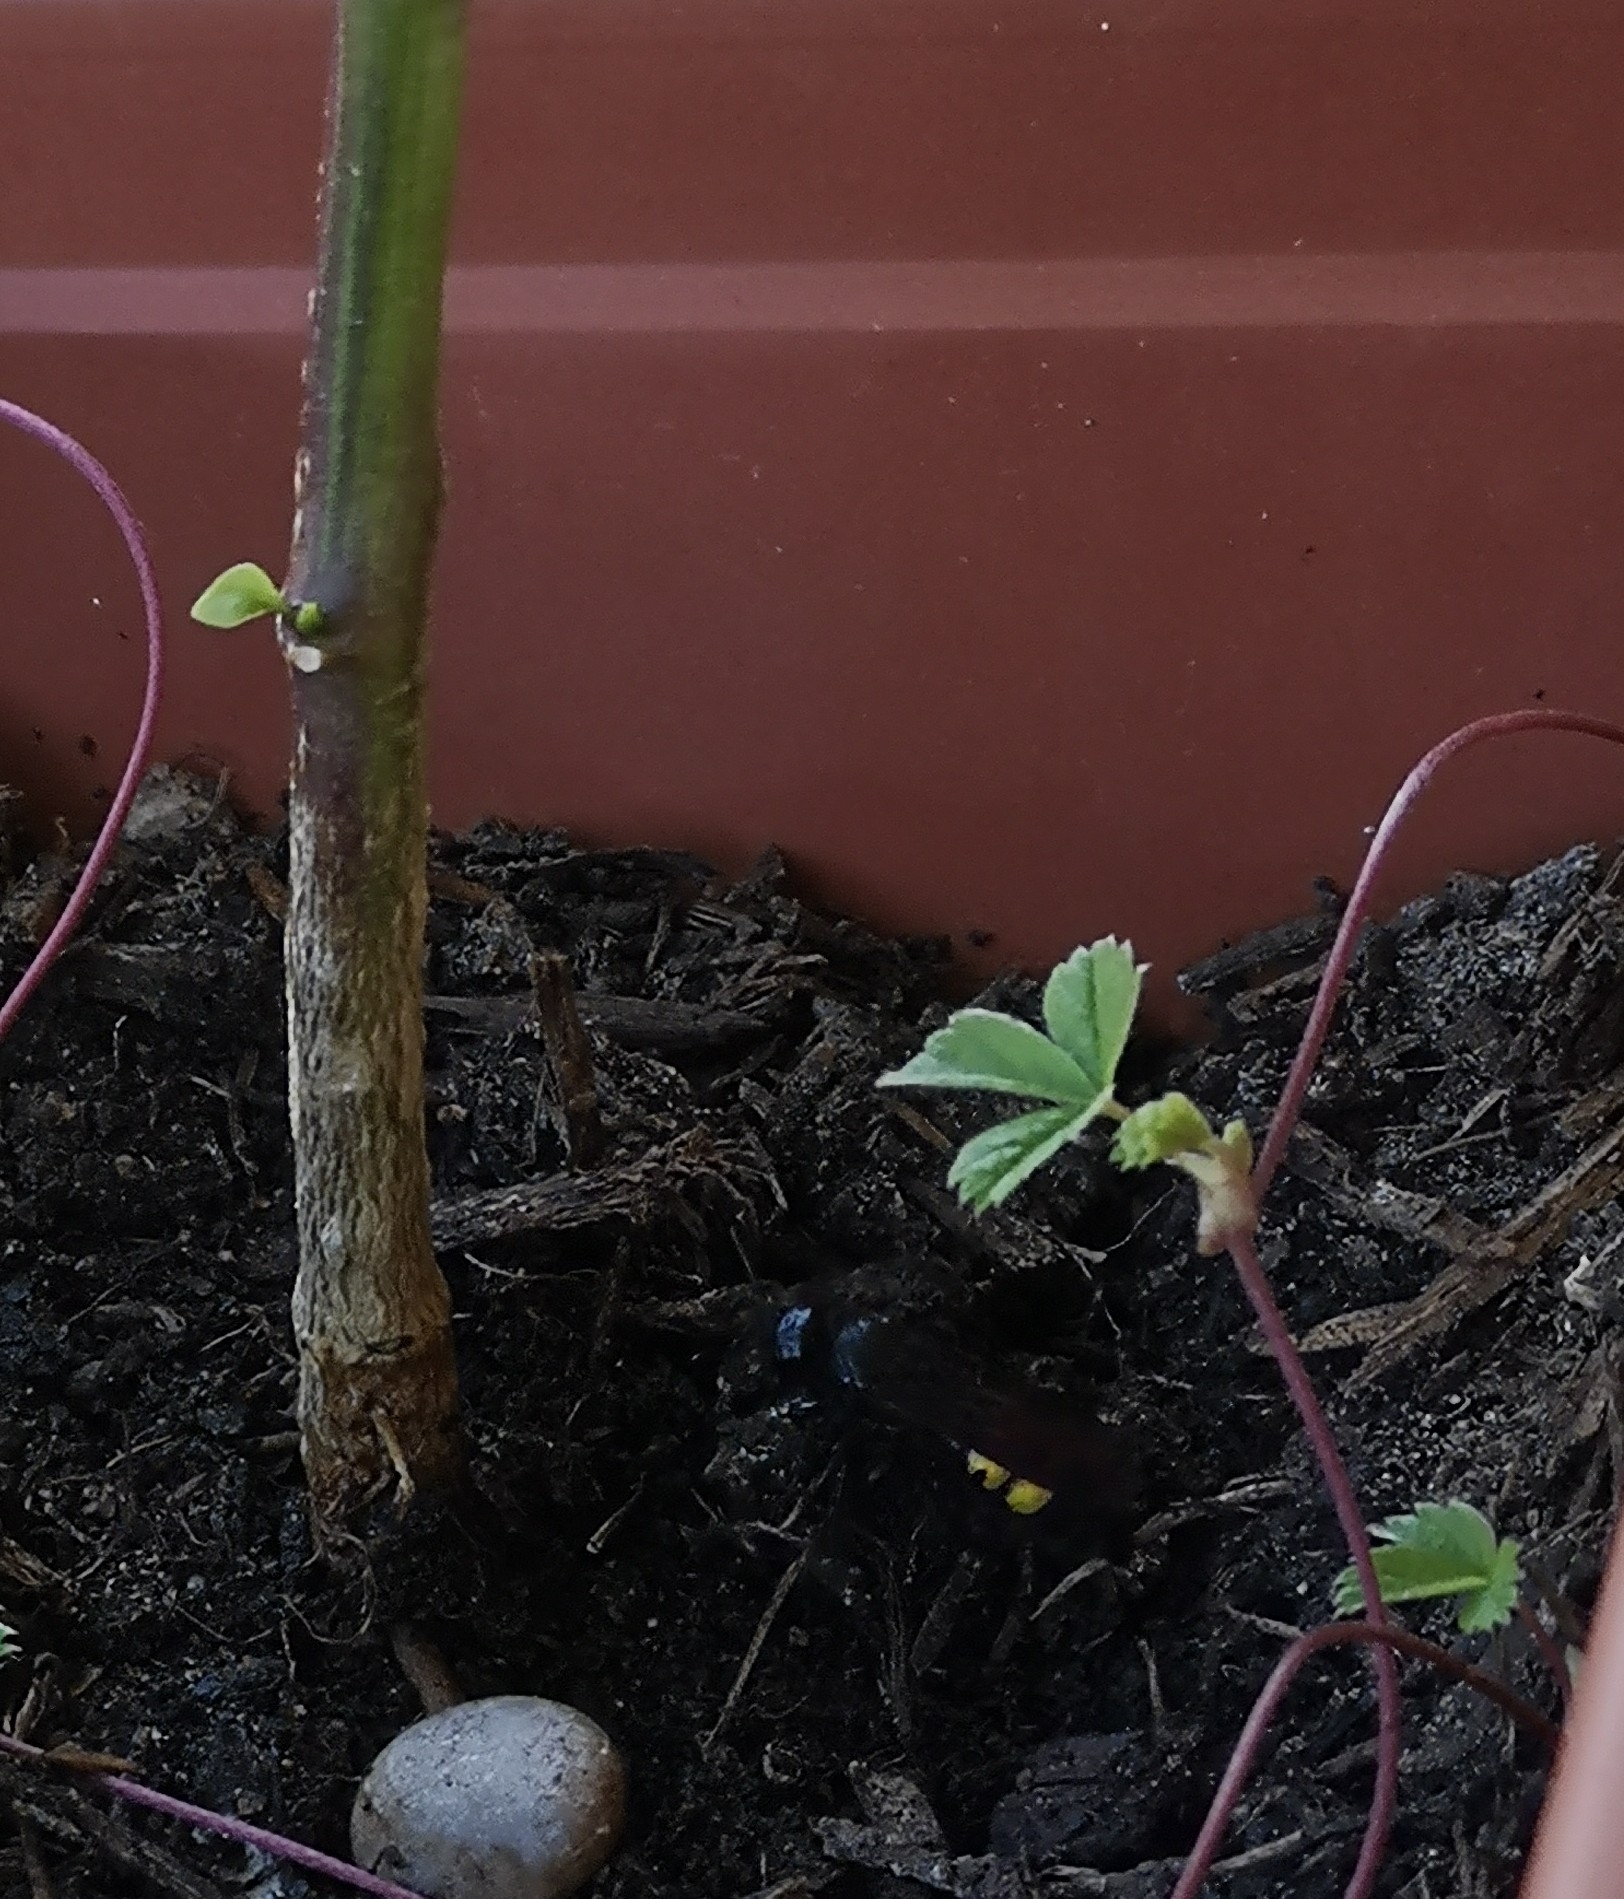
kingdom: Animalia
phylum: Arthropoda
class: Insecta
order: Hymenoptera
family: Scoliidae
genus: Scolia
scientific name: Scolia hirta
